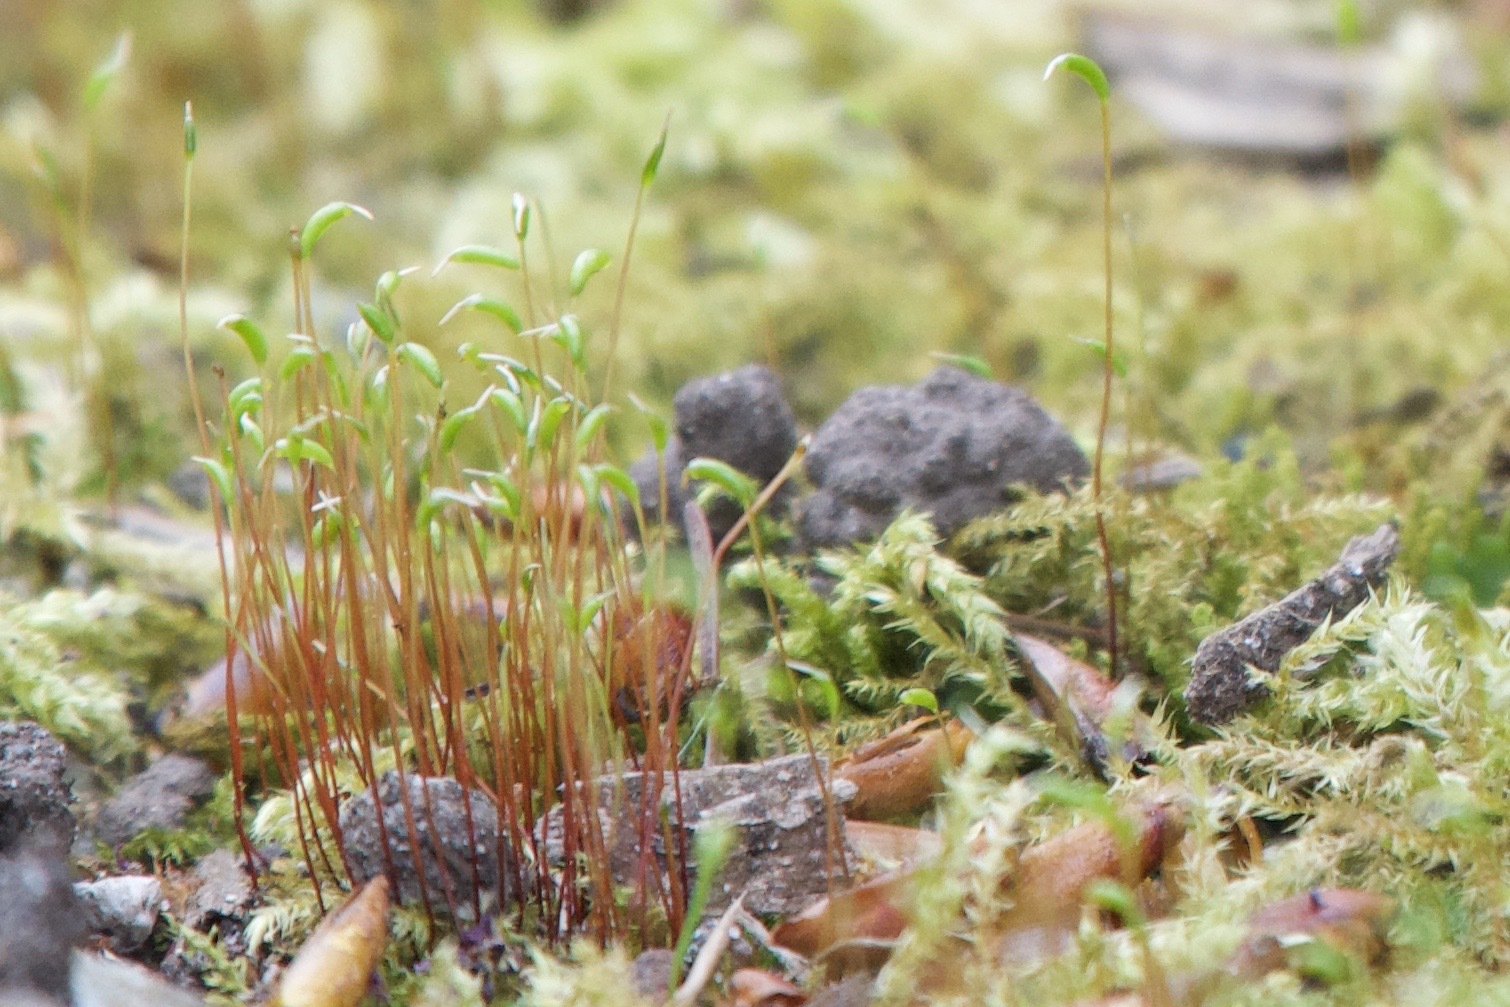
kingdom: Plantae
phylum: Bryophyta
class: Bryopsida
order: Hypnales
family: Amblystegiaceae
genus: Amblystegium
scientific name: Amblystegium serpens
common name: Jurkatzka's feather moss
